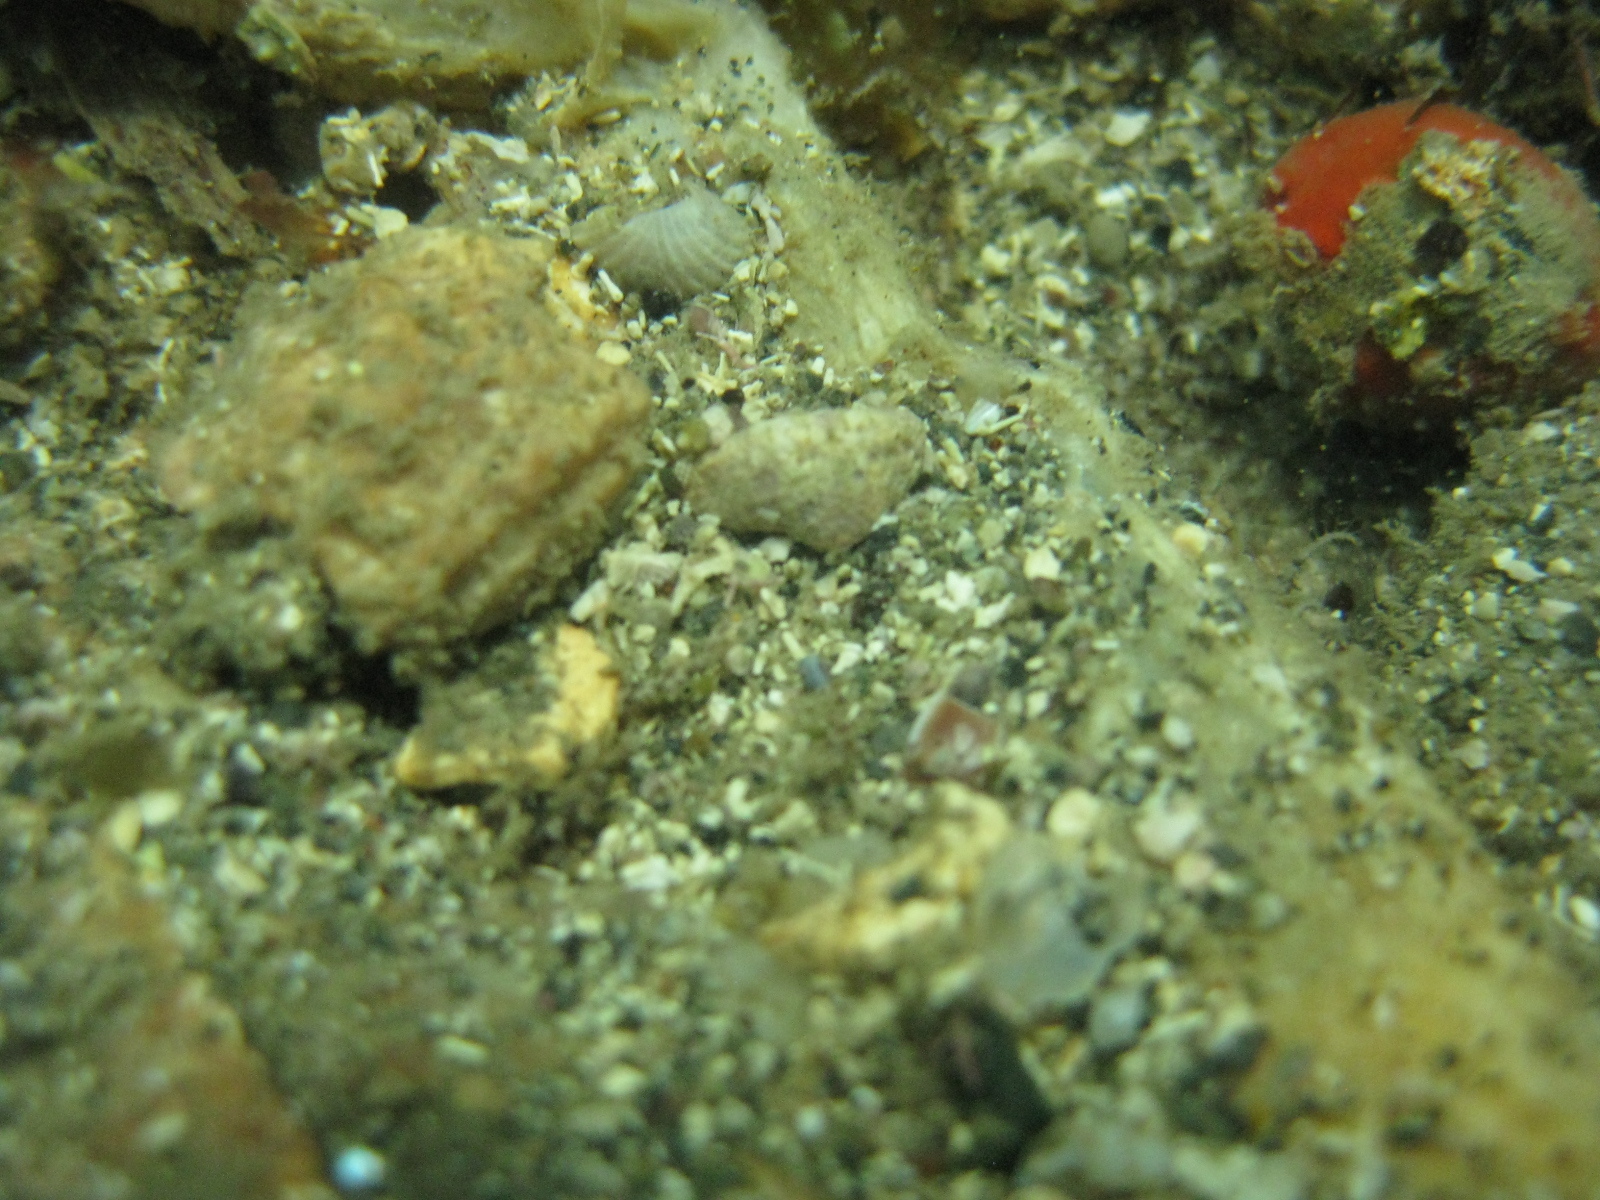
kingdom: Animalia
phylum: Mollusca
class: Bivalvia
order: Galeommatida
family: Lasaeidae
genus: Myllita
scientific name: Myllita stowei
